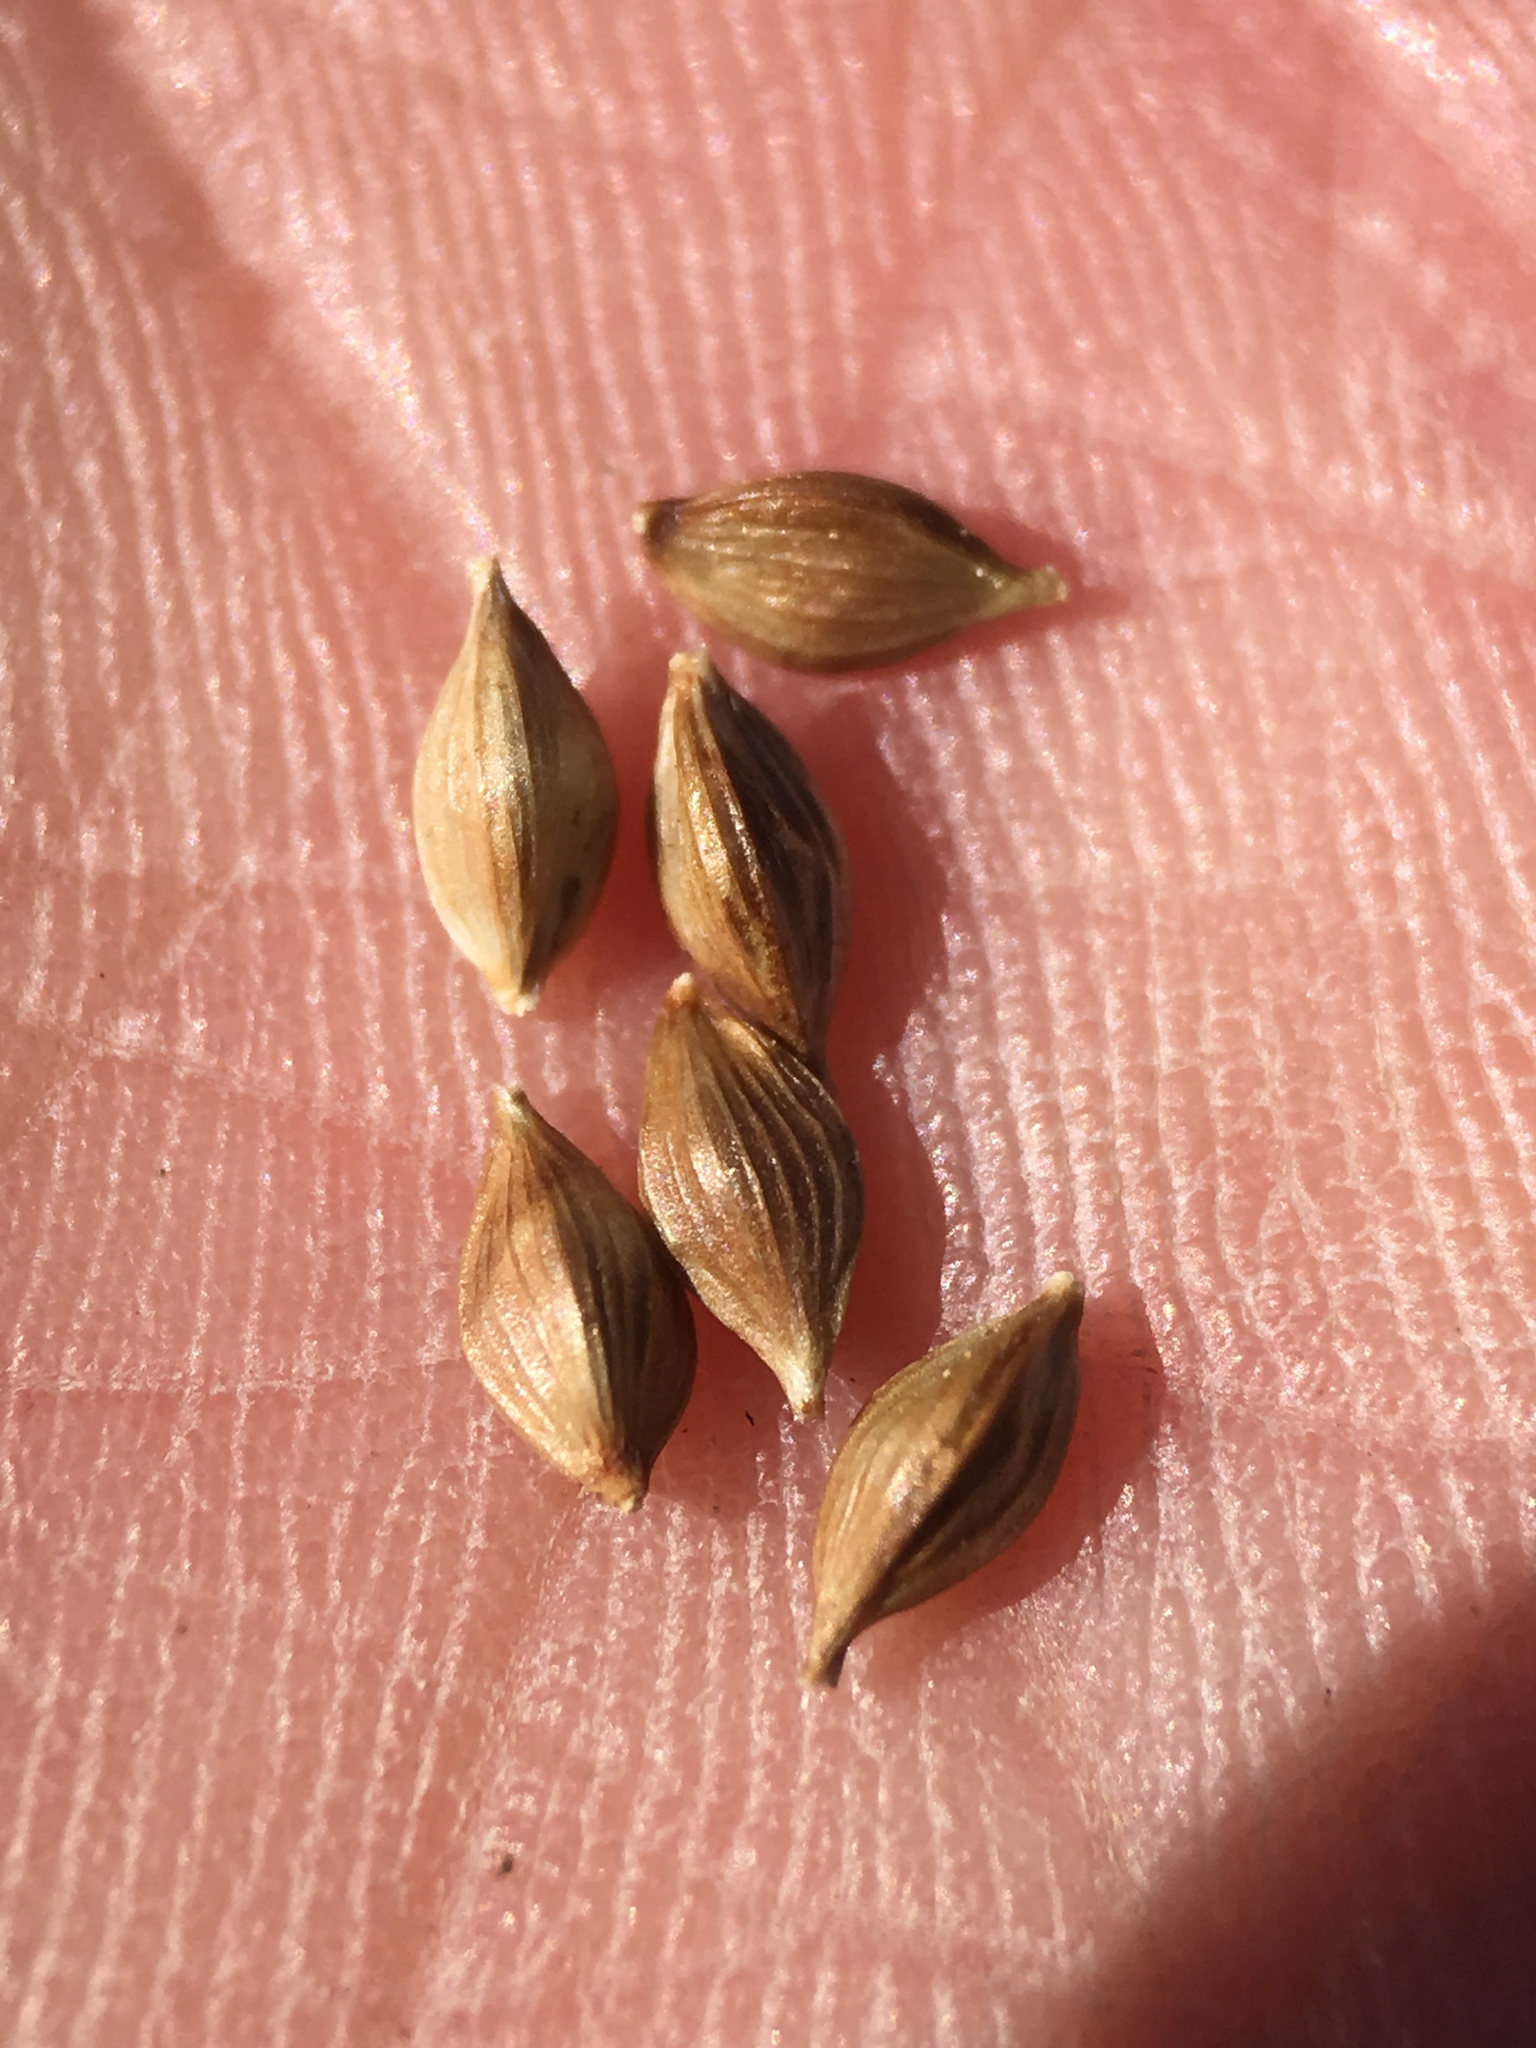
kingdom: Plantae
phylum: Tracheophyta
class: Liliopsida
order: Poales
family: Cyperaceae
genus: Carex
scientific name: Carex whitneyi
